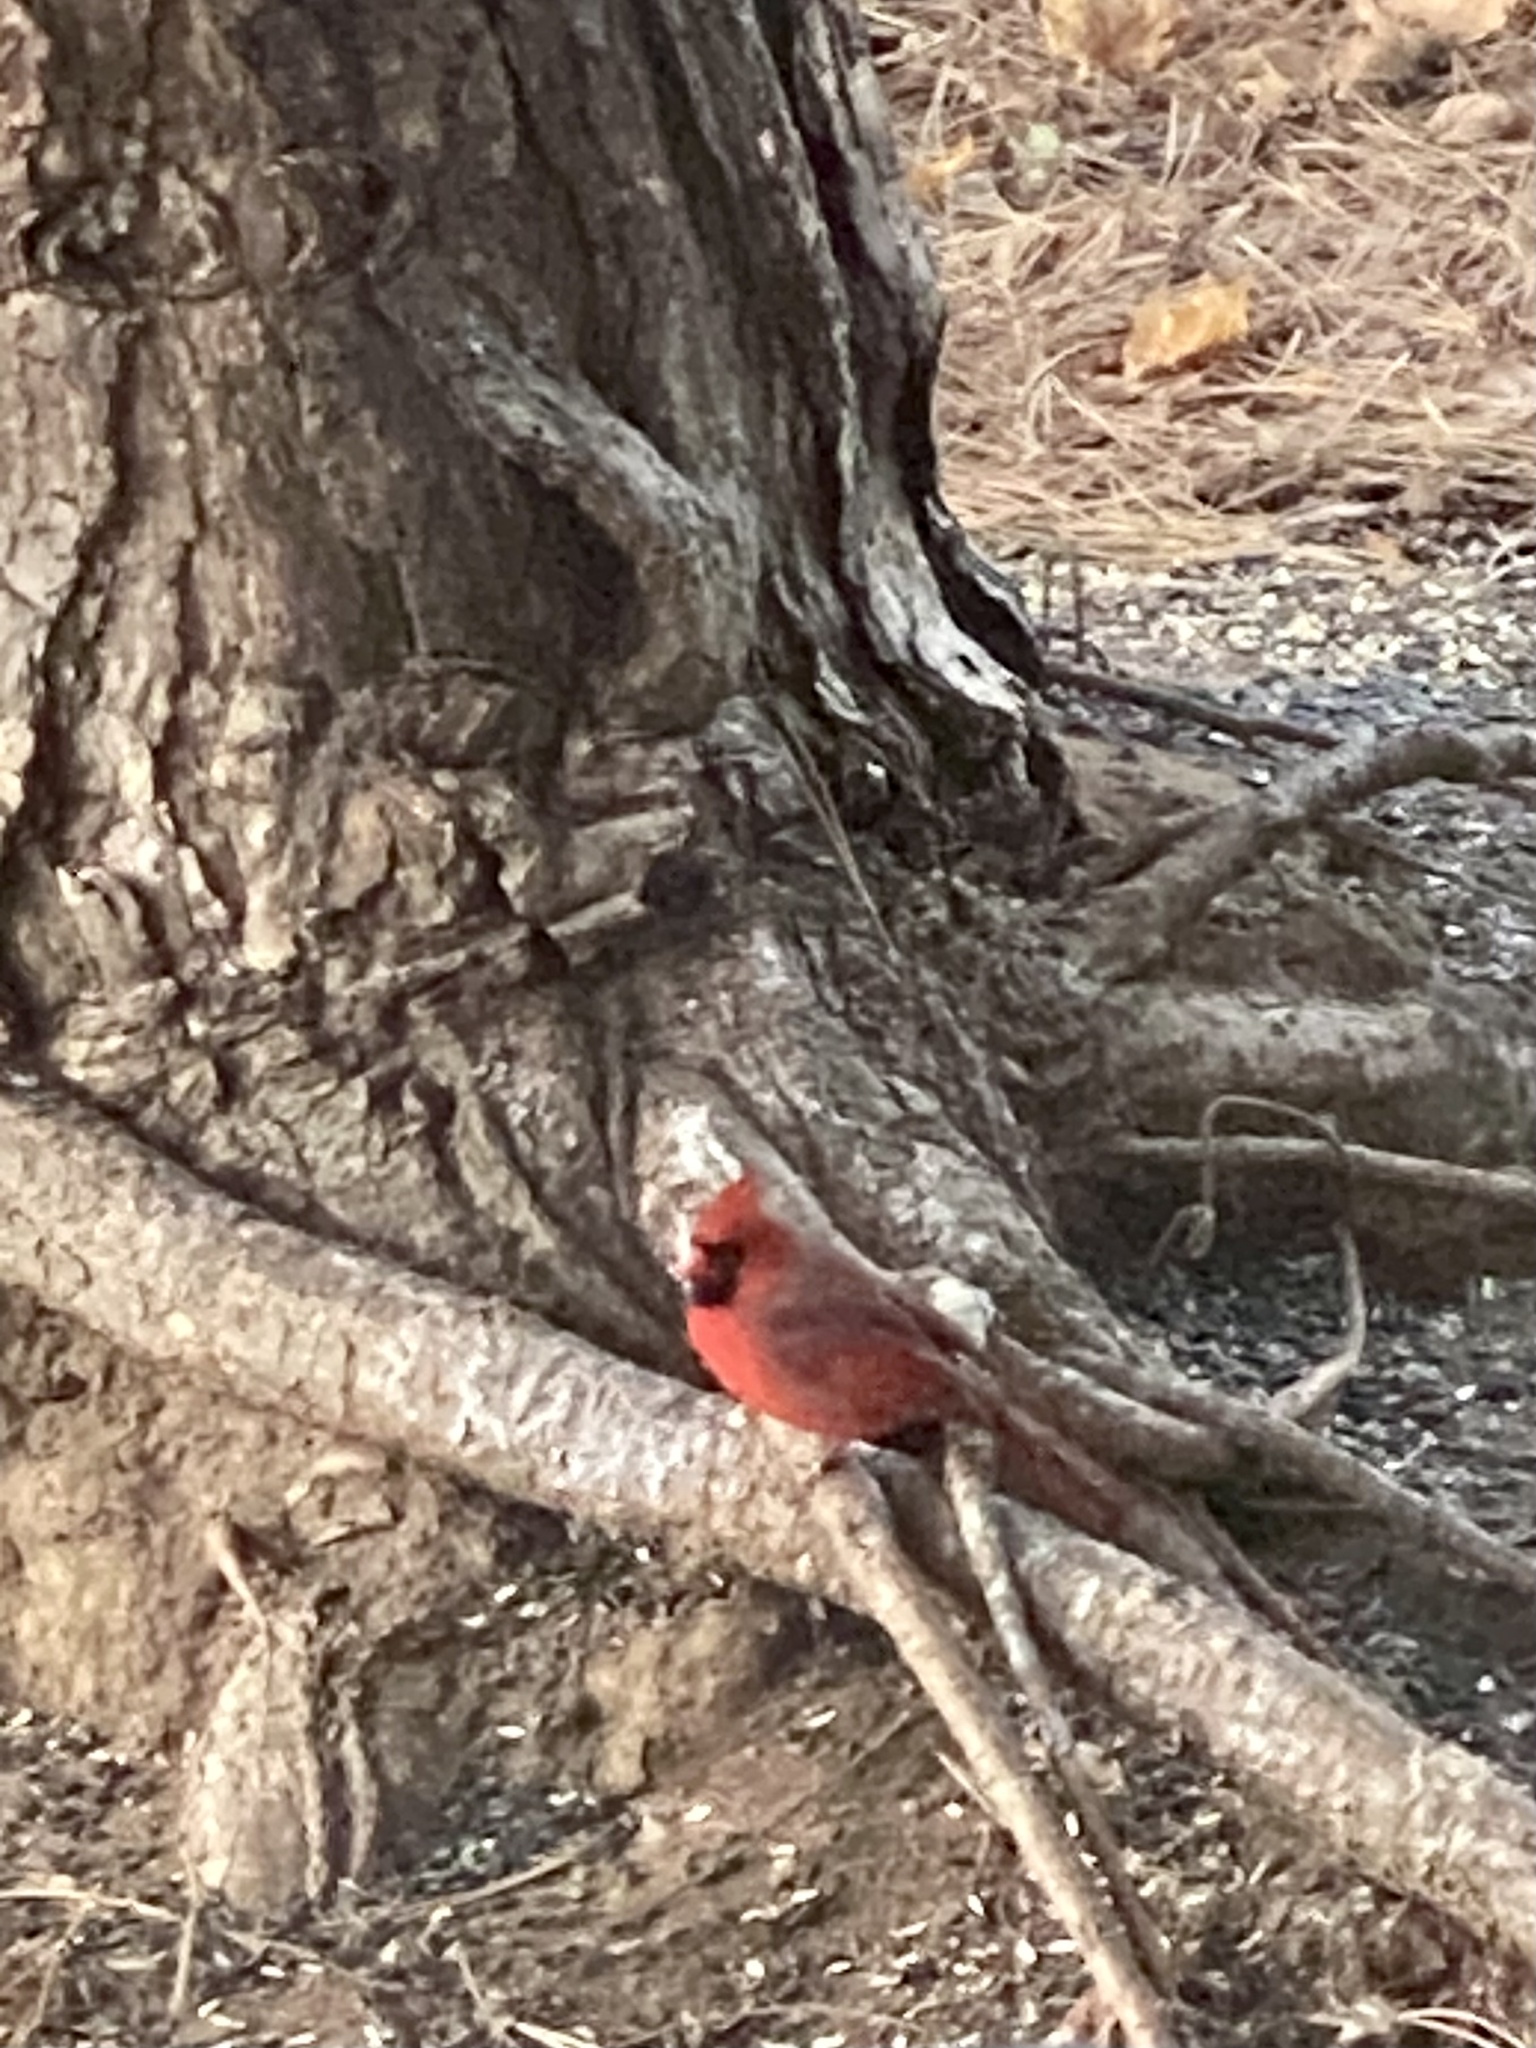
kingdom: Animalia
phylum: Chordata
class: Aves
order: Passeriformes
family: Cardinalidae
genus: Cardinalis
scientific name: Cardinalis cardinalis
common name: Northern cardinal
